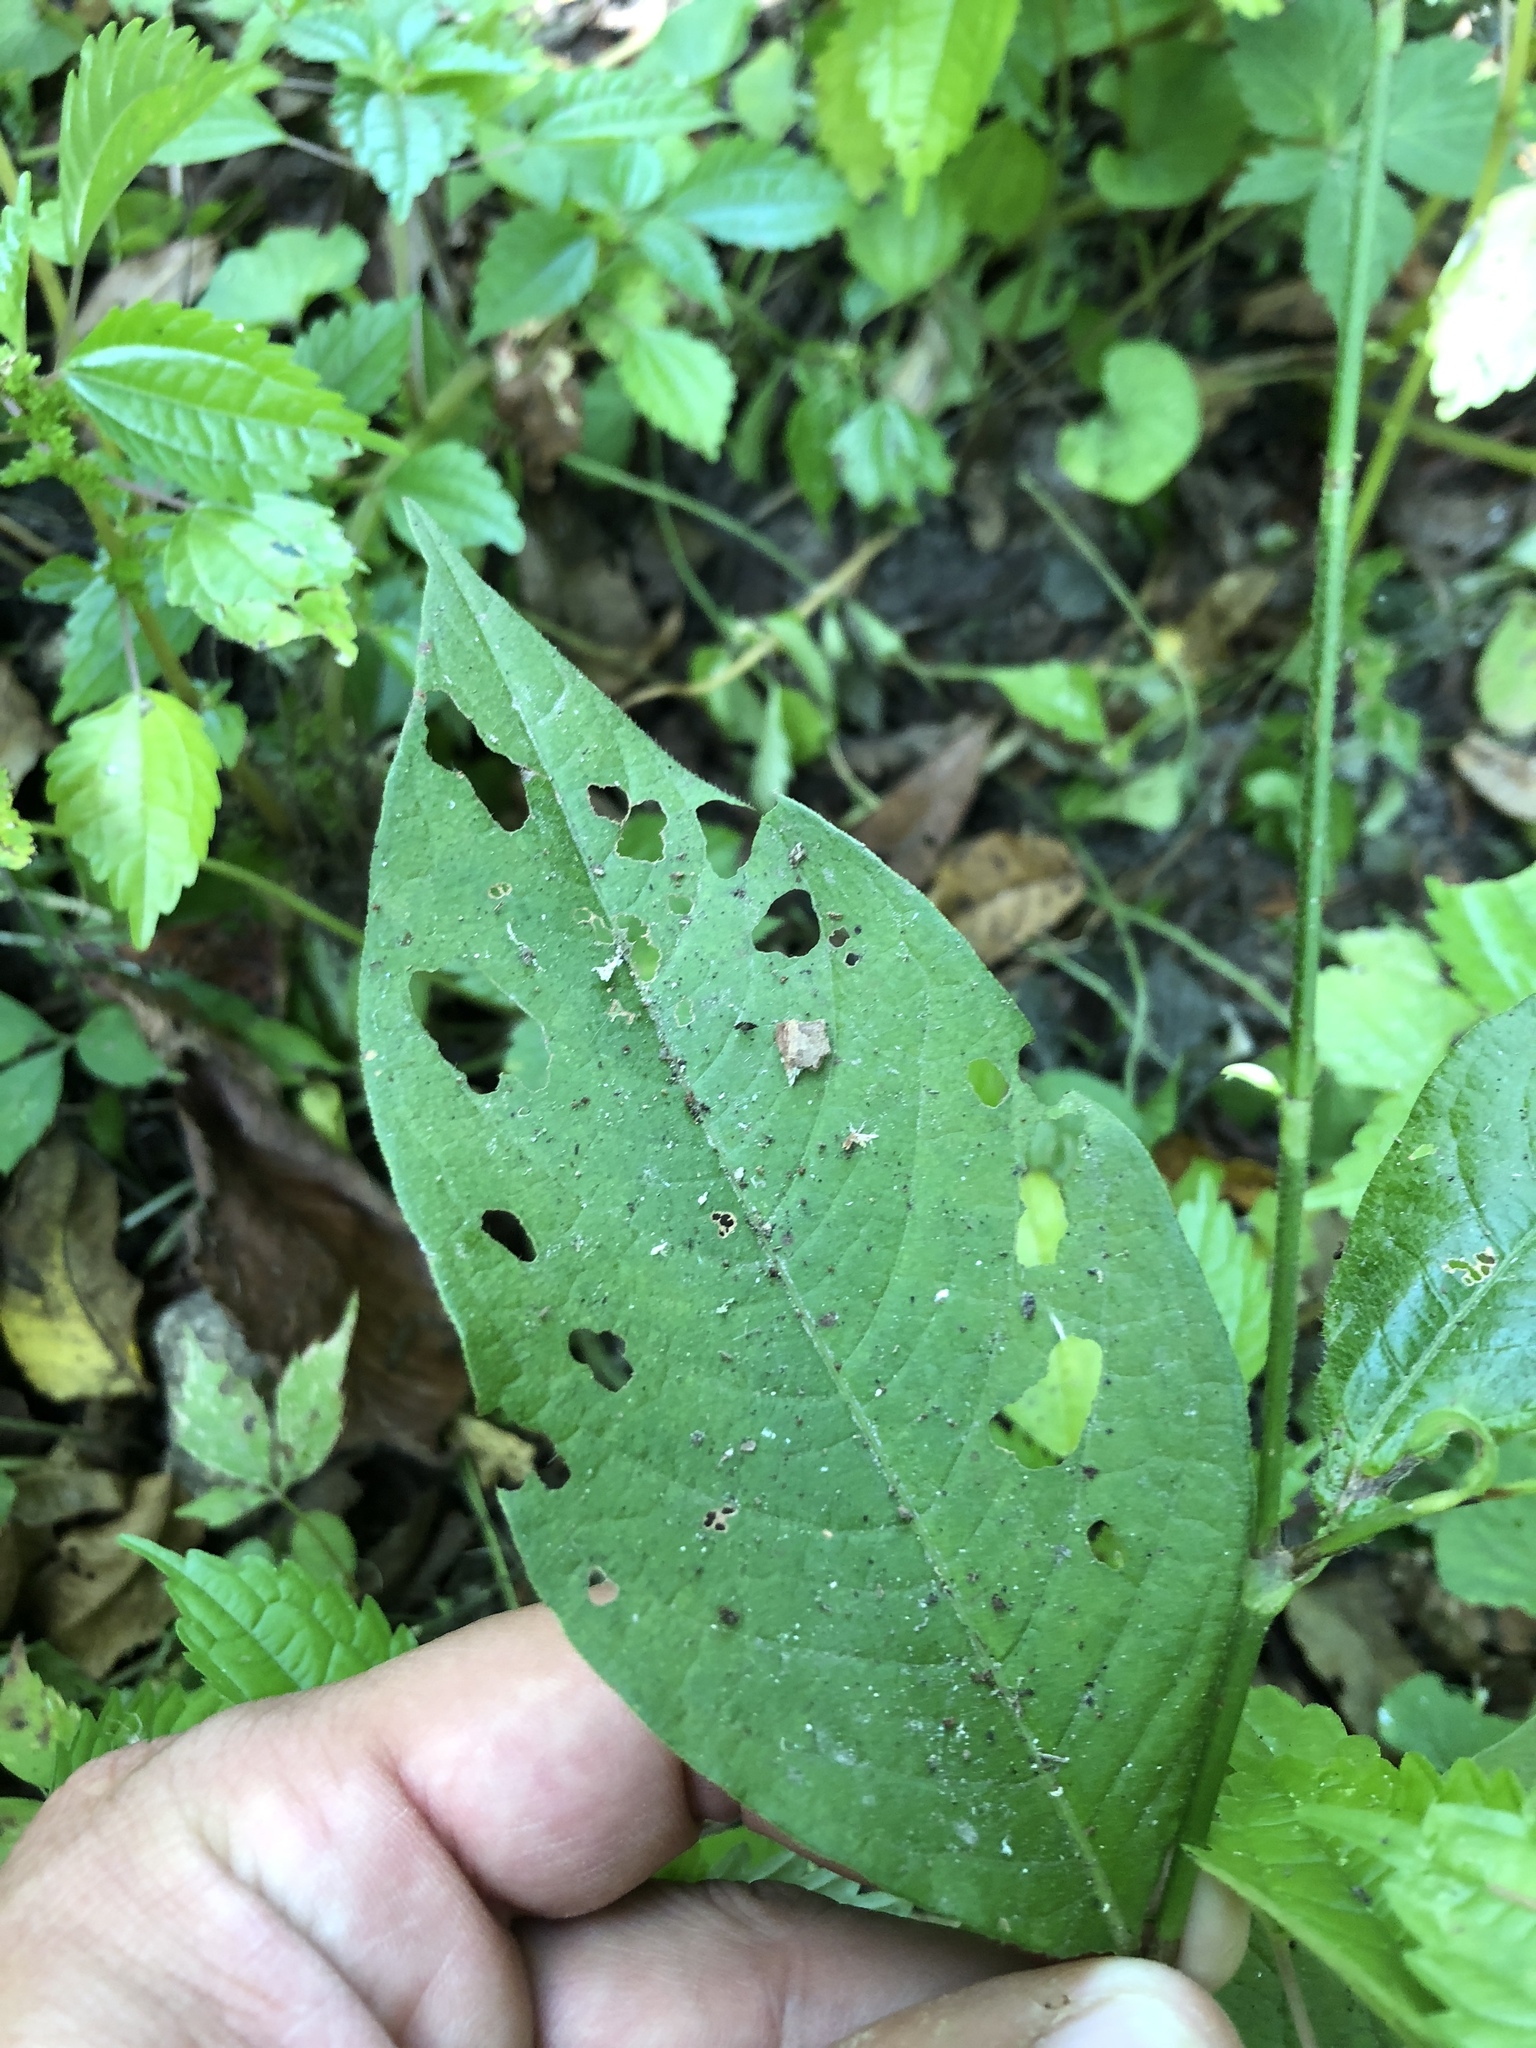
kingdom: Plantae
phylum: Tracheophyta
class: Magnoliopsida
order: Caryophyllales
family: Polygonaceae
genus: Persicaria
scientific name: Persicaria virginiana
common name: Jumpseed
